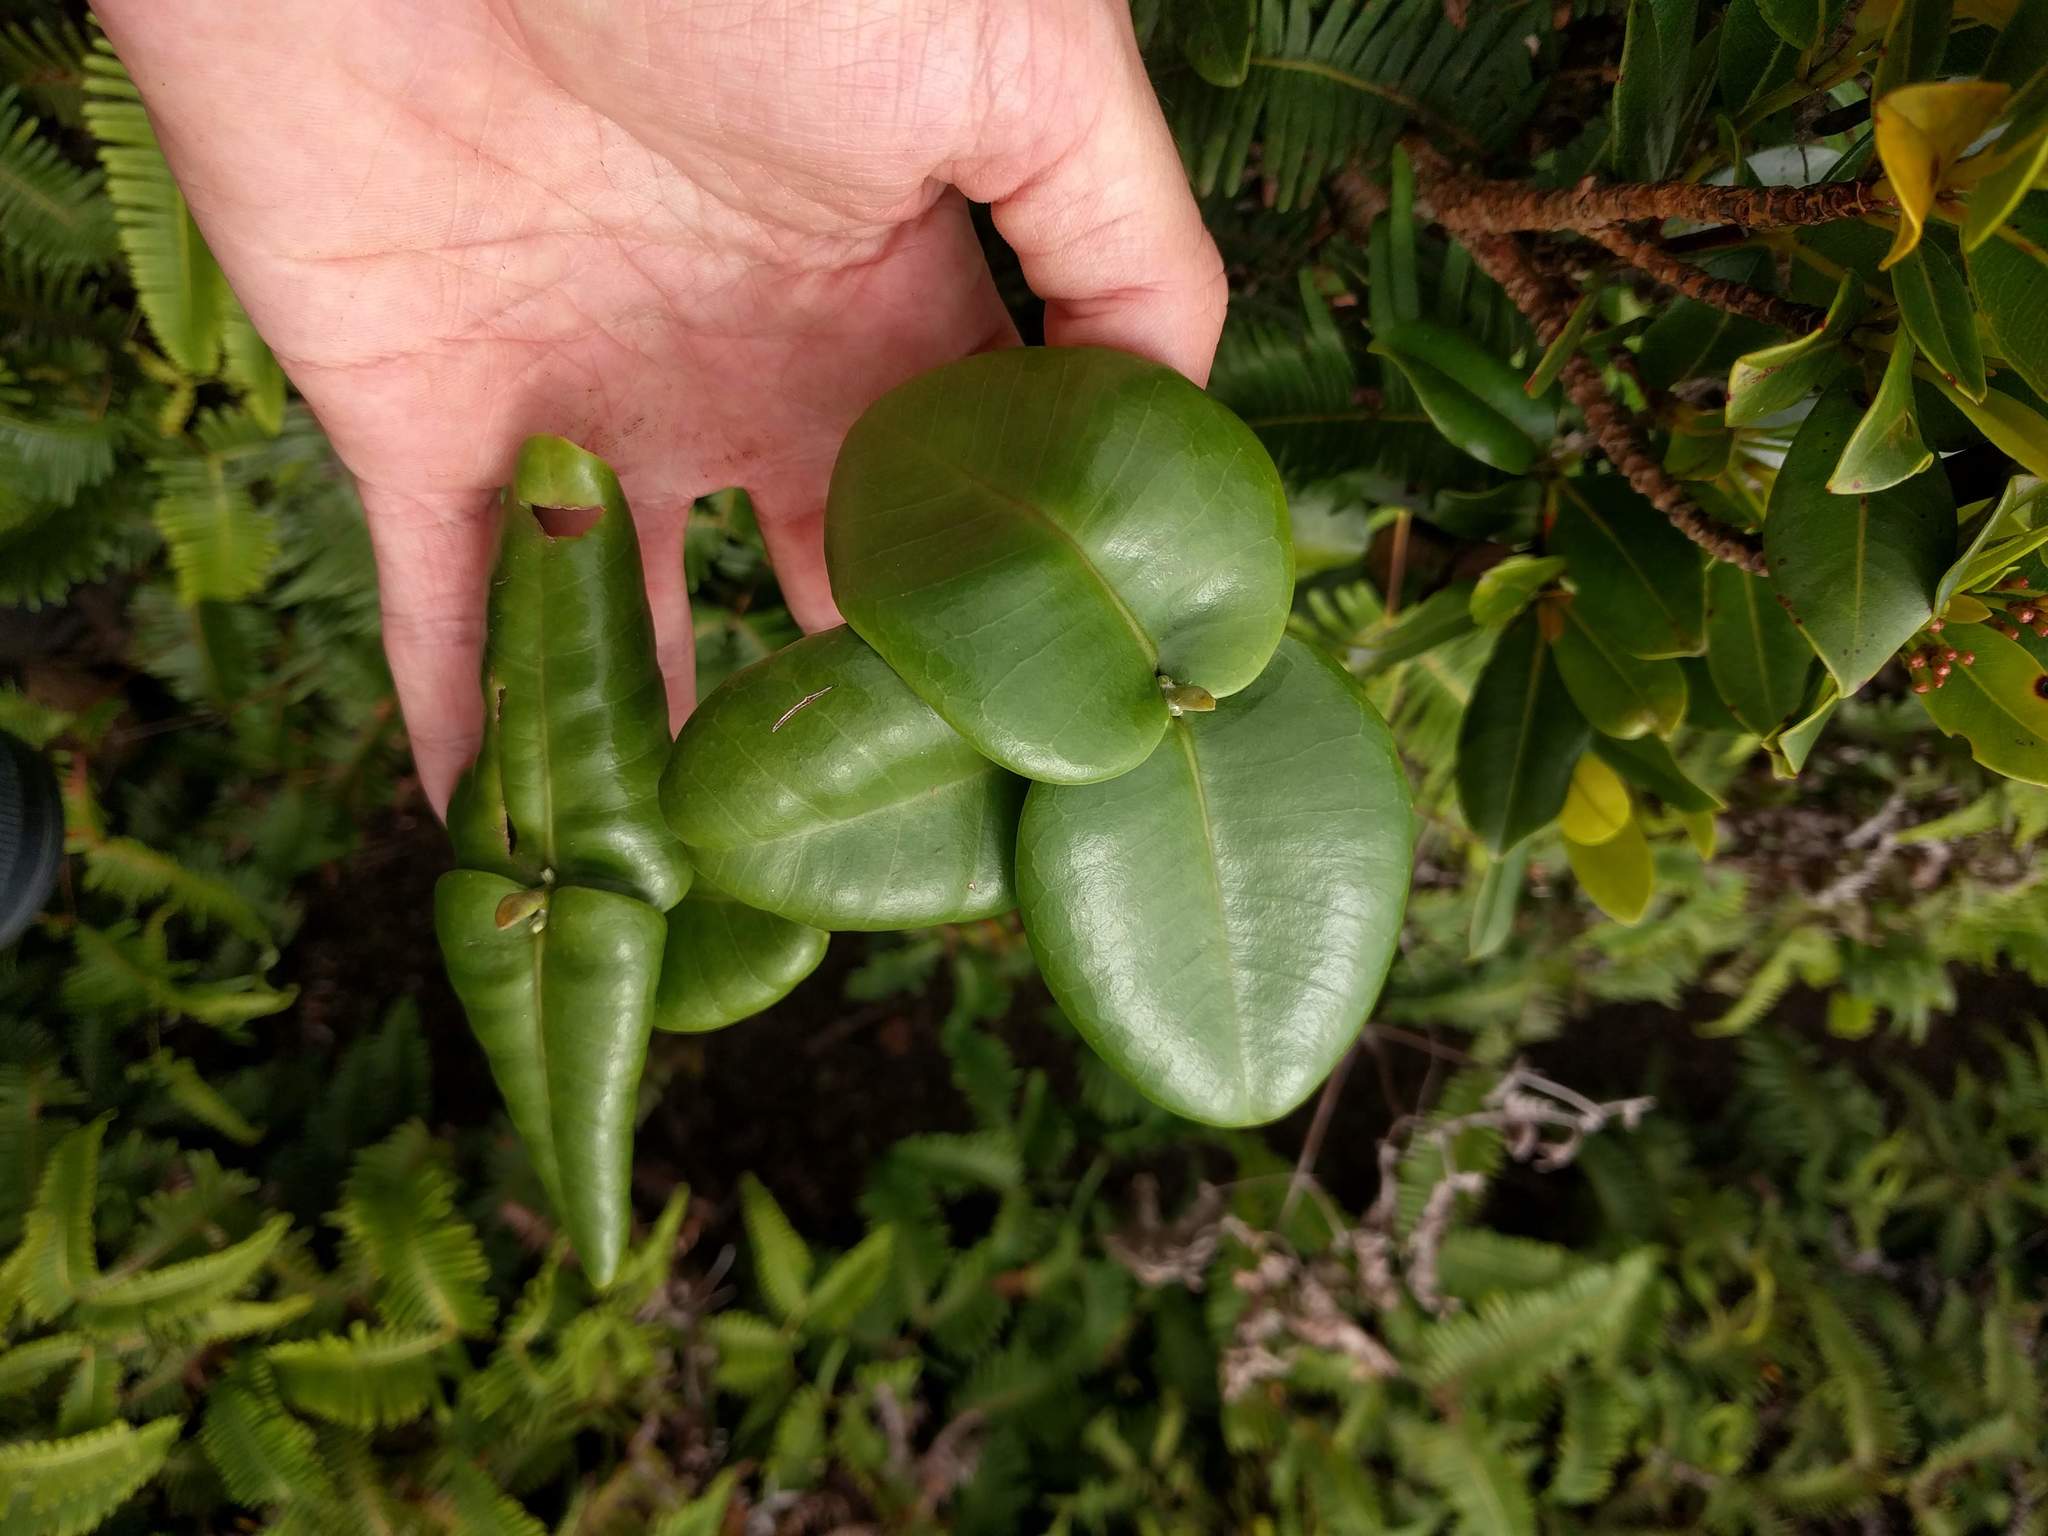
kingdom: Plantae
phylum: Tracheophyta
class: Magnoliopsida
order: Sapindales
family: Rutaceae
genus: Melicope
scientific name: Melicope rotundifolia
